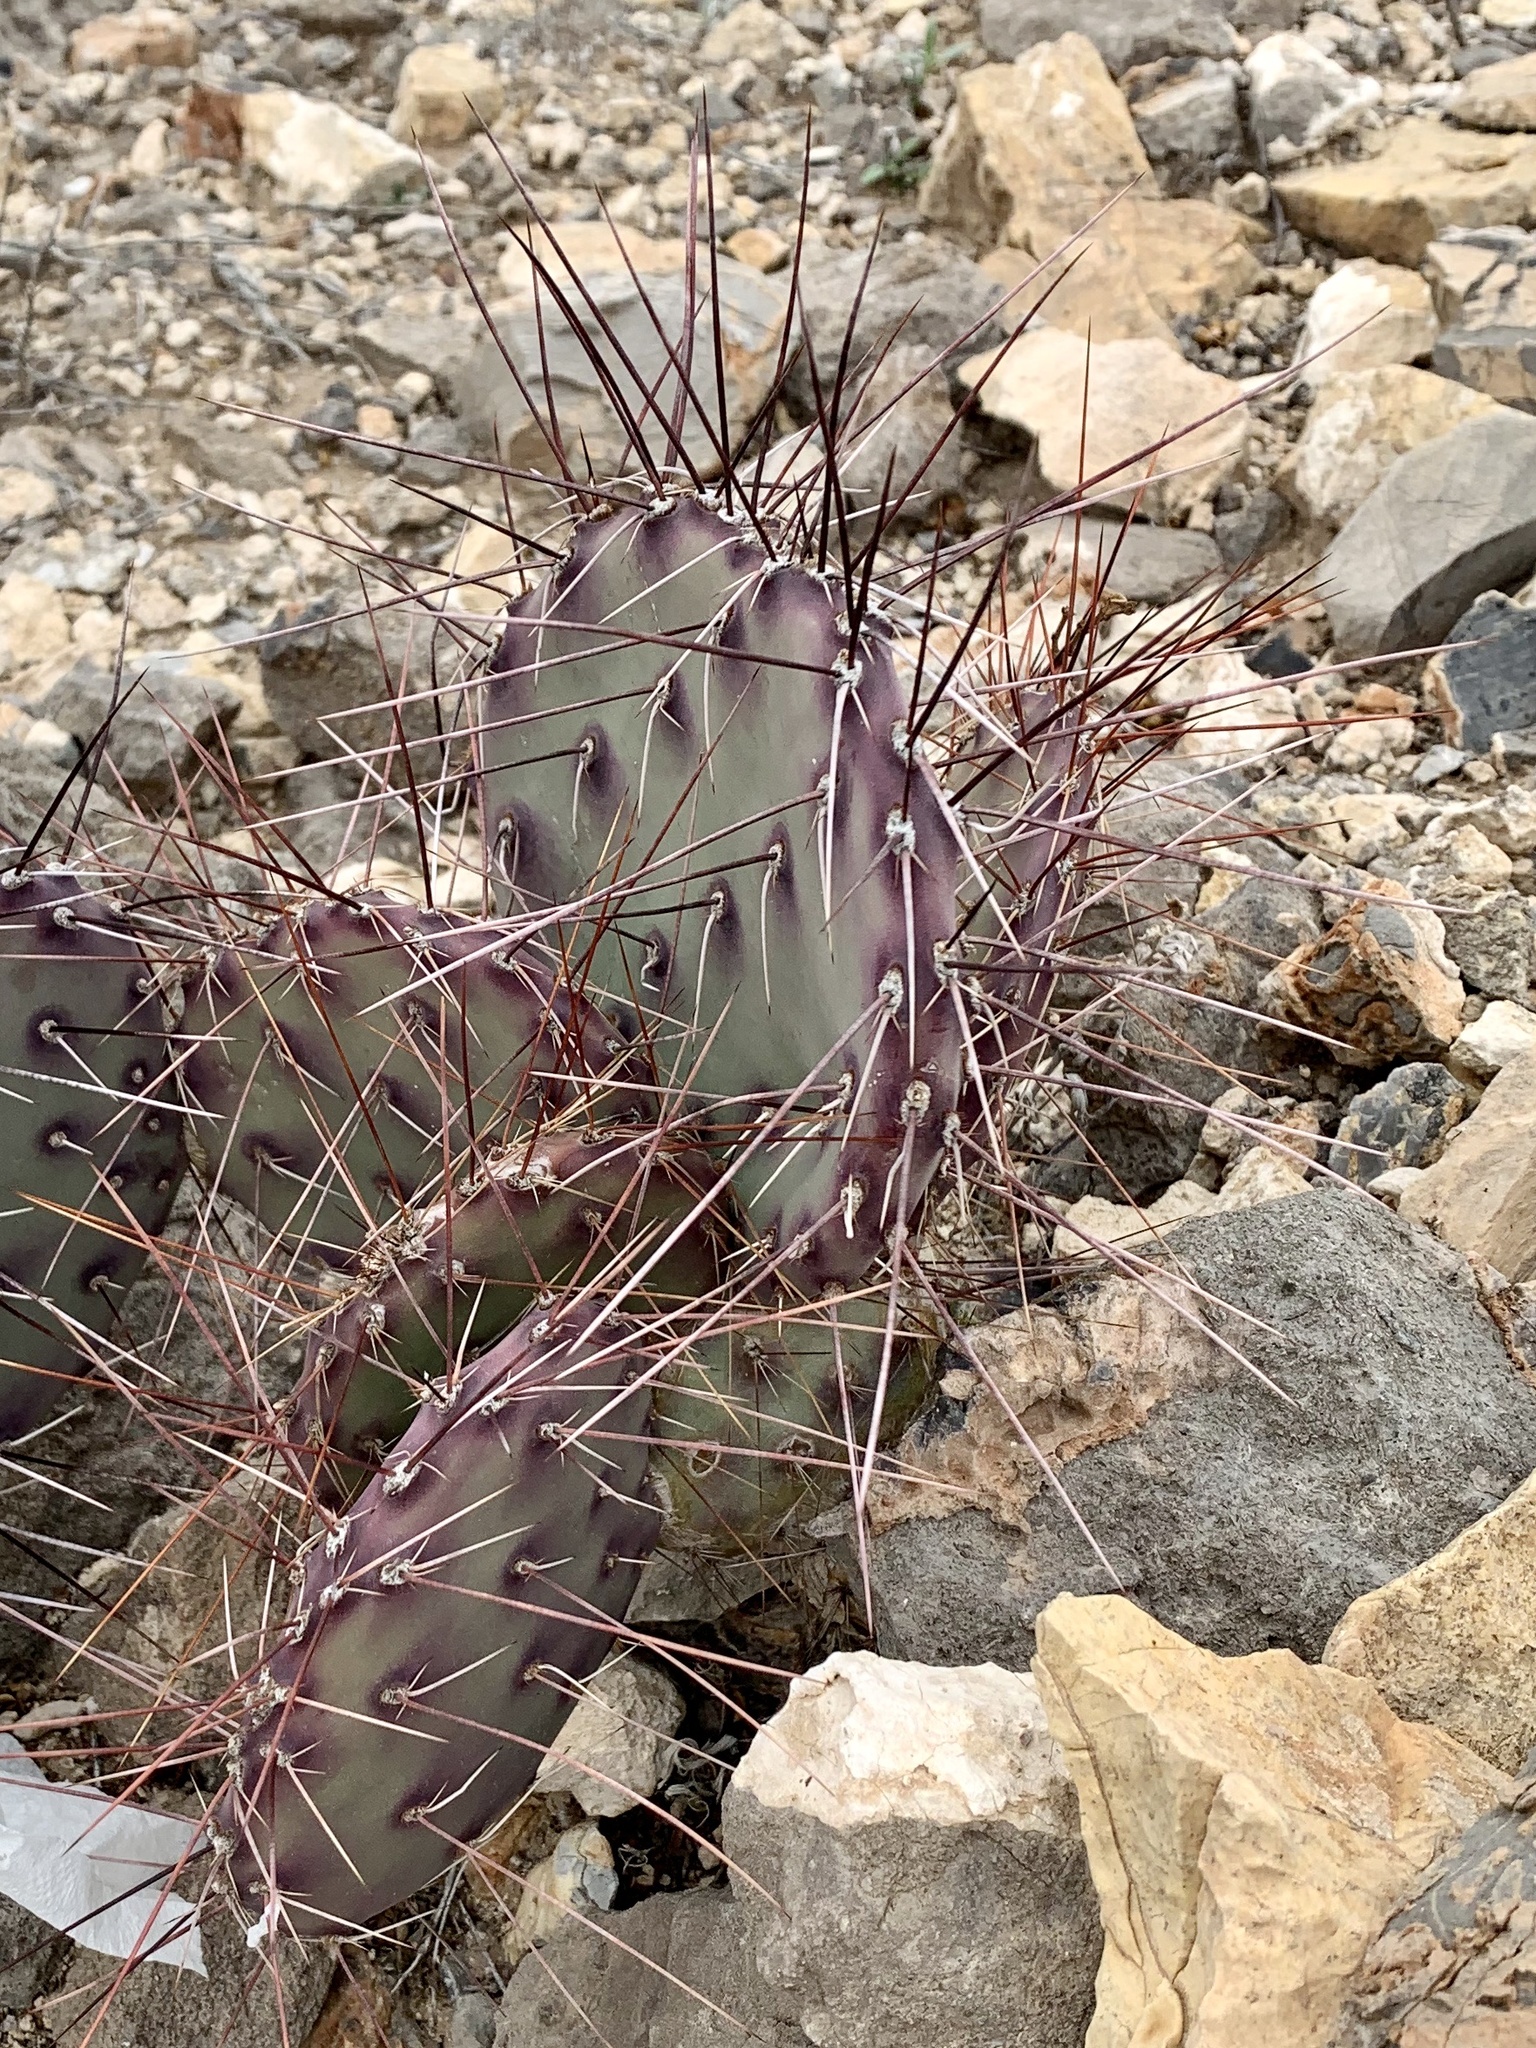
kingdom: Plantae
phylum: Tracheophyta
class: Magnoliopsida
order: Caryophyllales
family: Cactaceae
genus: Opuntia
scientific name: Opuntia phaeacantha
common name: New mexico prickly-pear
